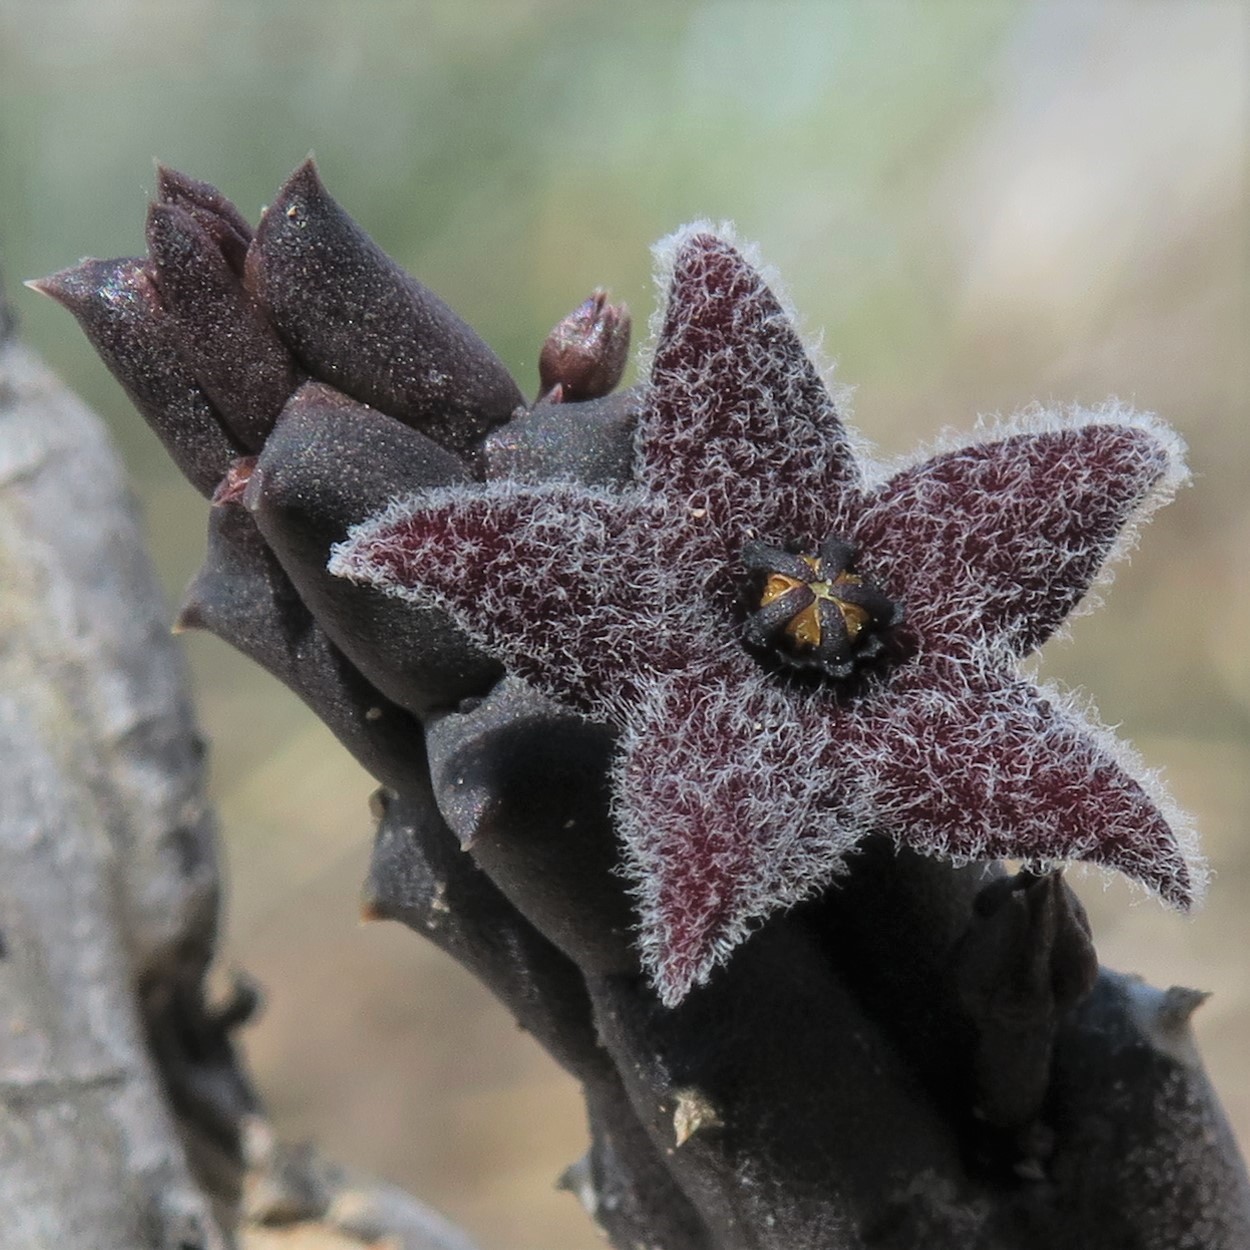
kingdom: Plantae
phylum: Tracheophyta
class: Magnoliopsida
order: Gentianales
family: Apocynaceae
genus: Ceropegia
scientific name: Ceropegia pruinosa
